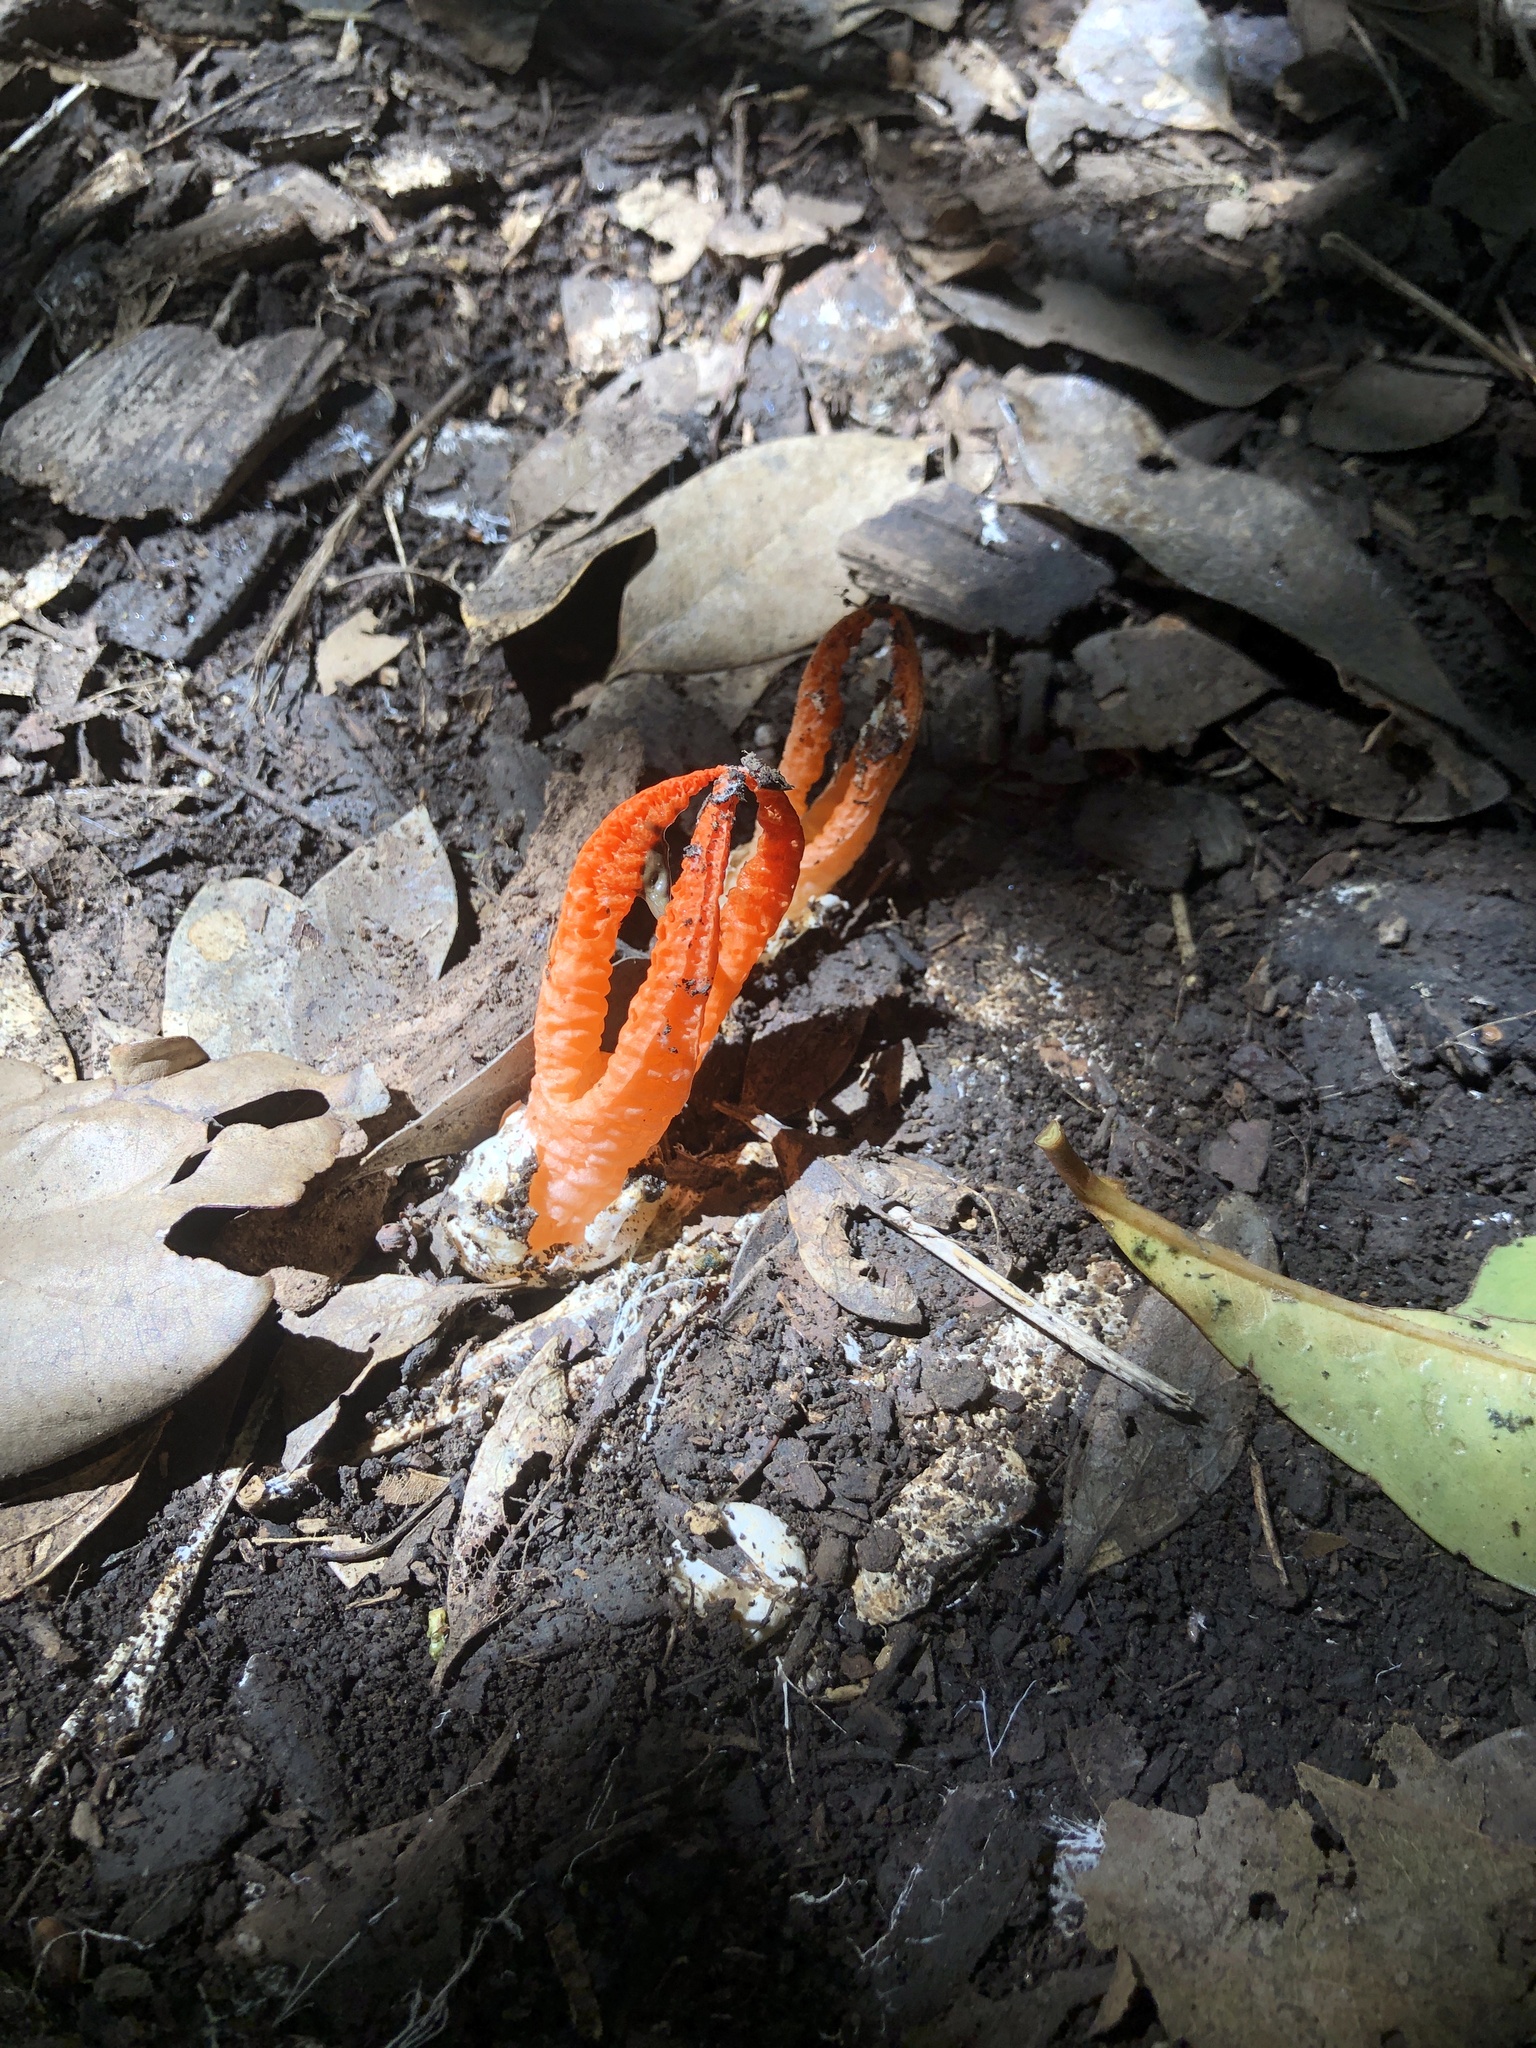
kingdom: Fungi
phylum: Basidiomycota
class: Agaricomycetes
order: Phallales
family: Phallaceae
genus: Pseudocolus
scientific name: Pseudocolus fusiformis
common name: Stinky squid
